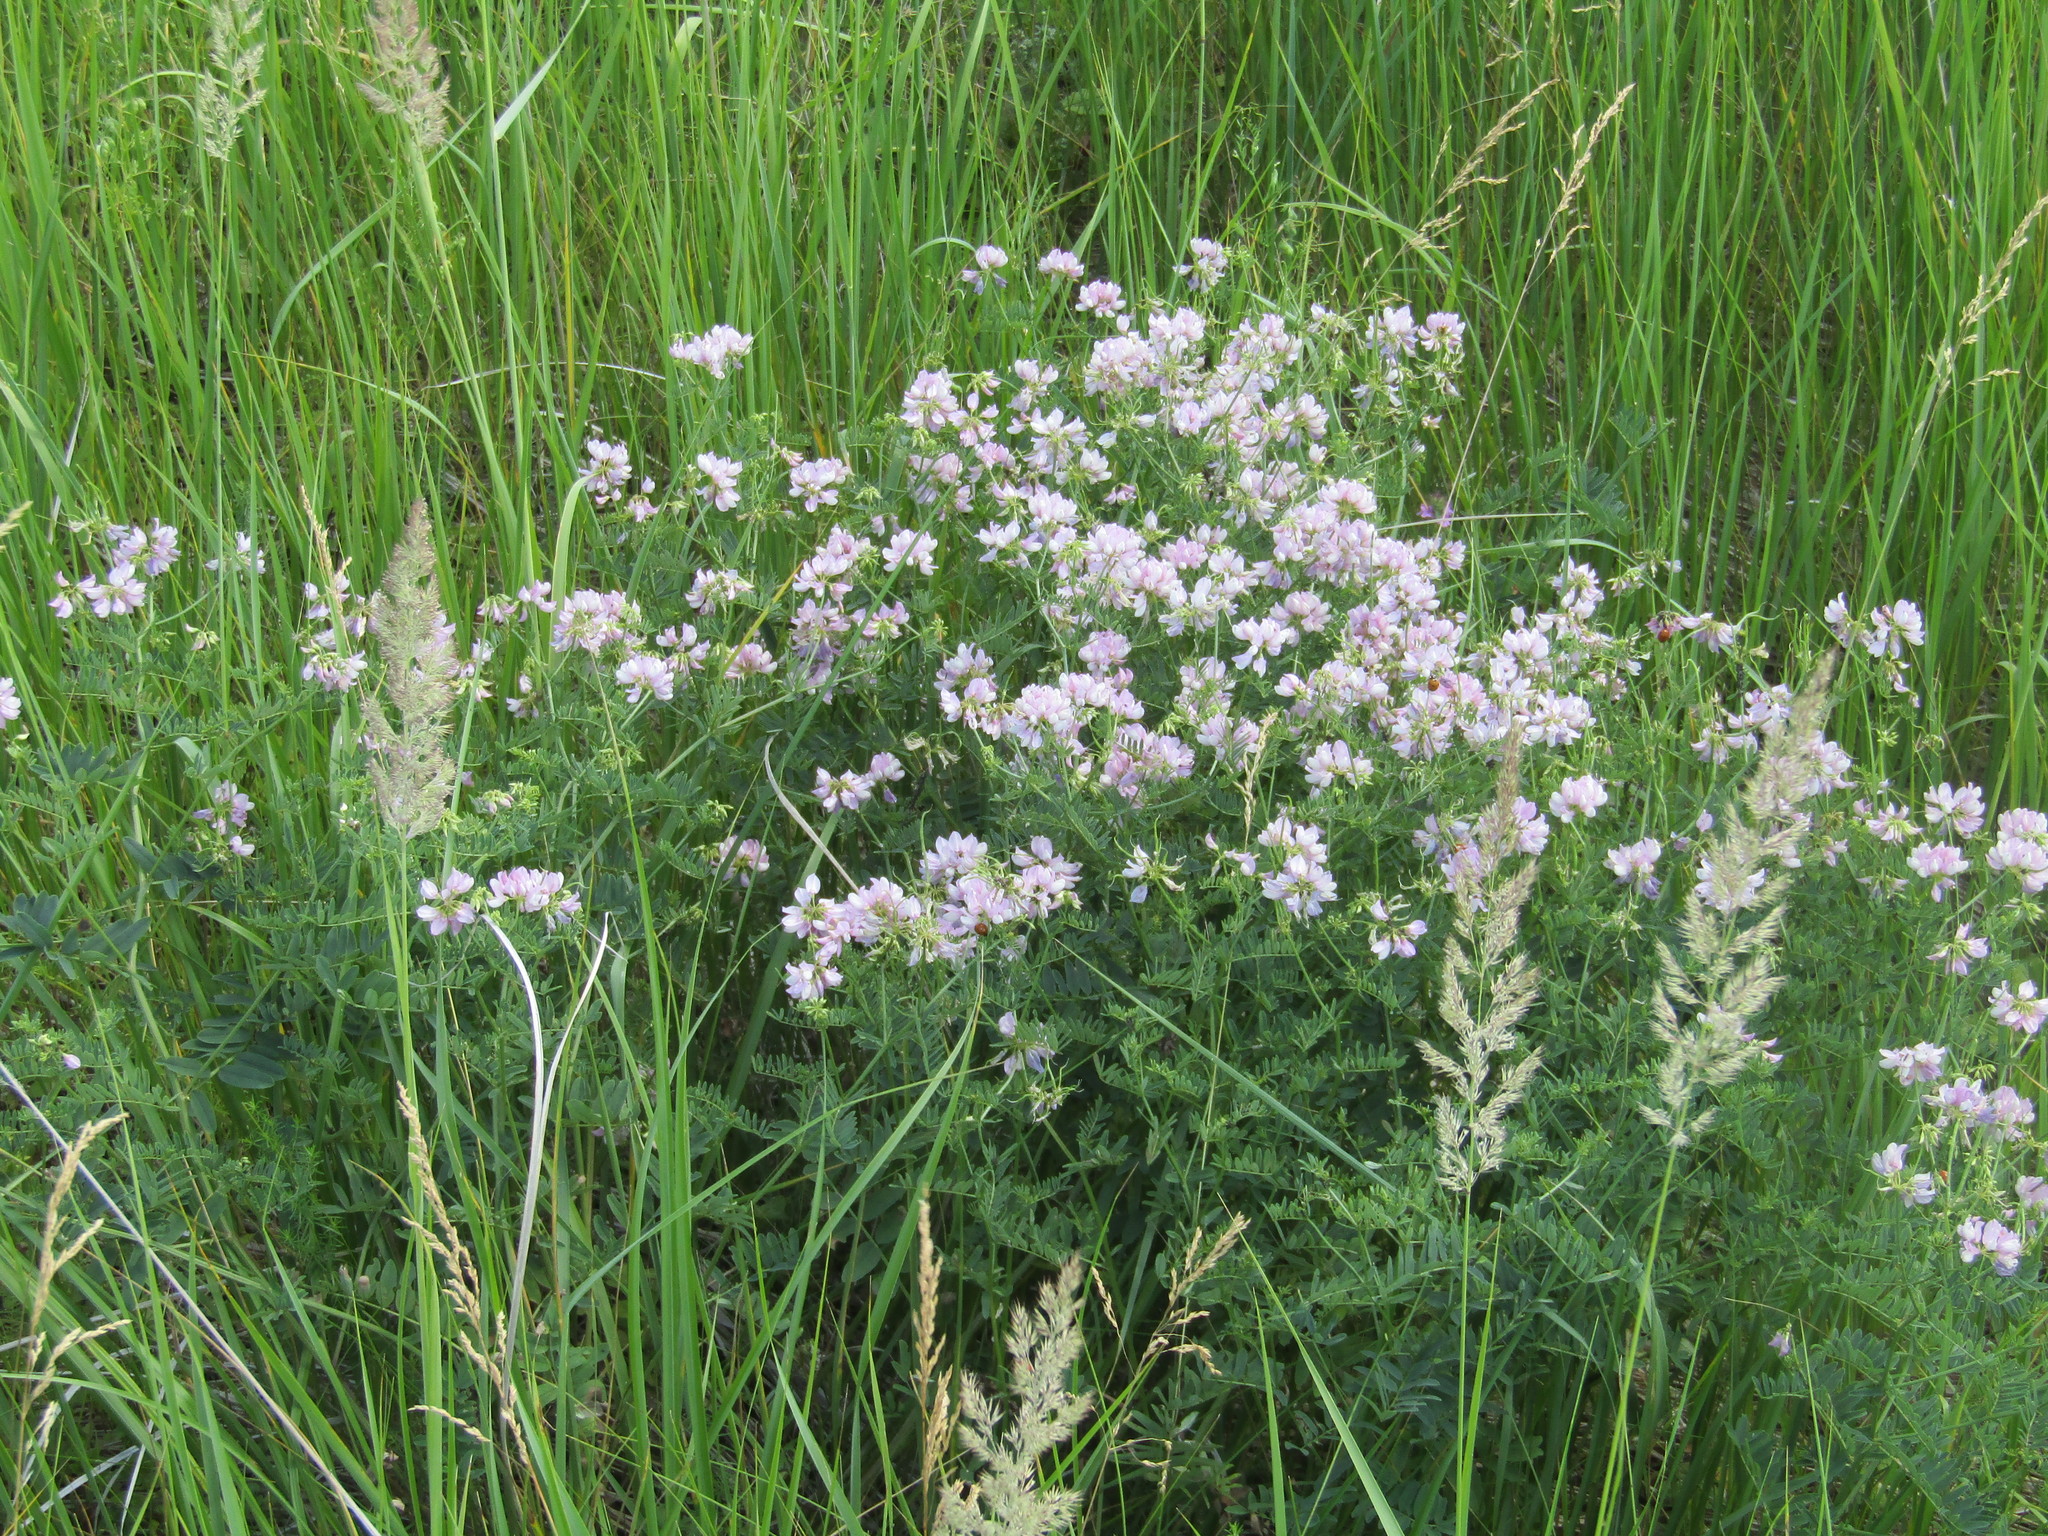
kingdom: Plantae
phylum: Tracheophyta
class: Magnoliopsida
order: Fabales
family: Fabaceae
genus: Coronilla
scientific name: Coronilla varia
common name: Crownvetch
